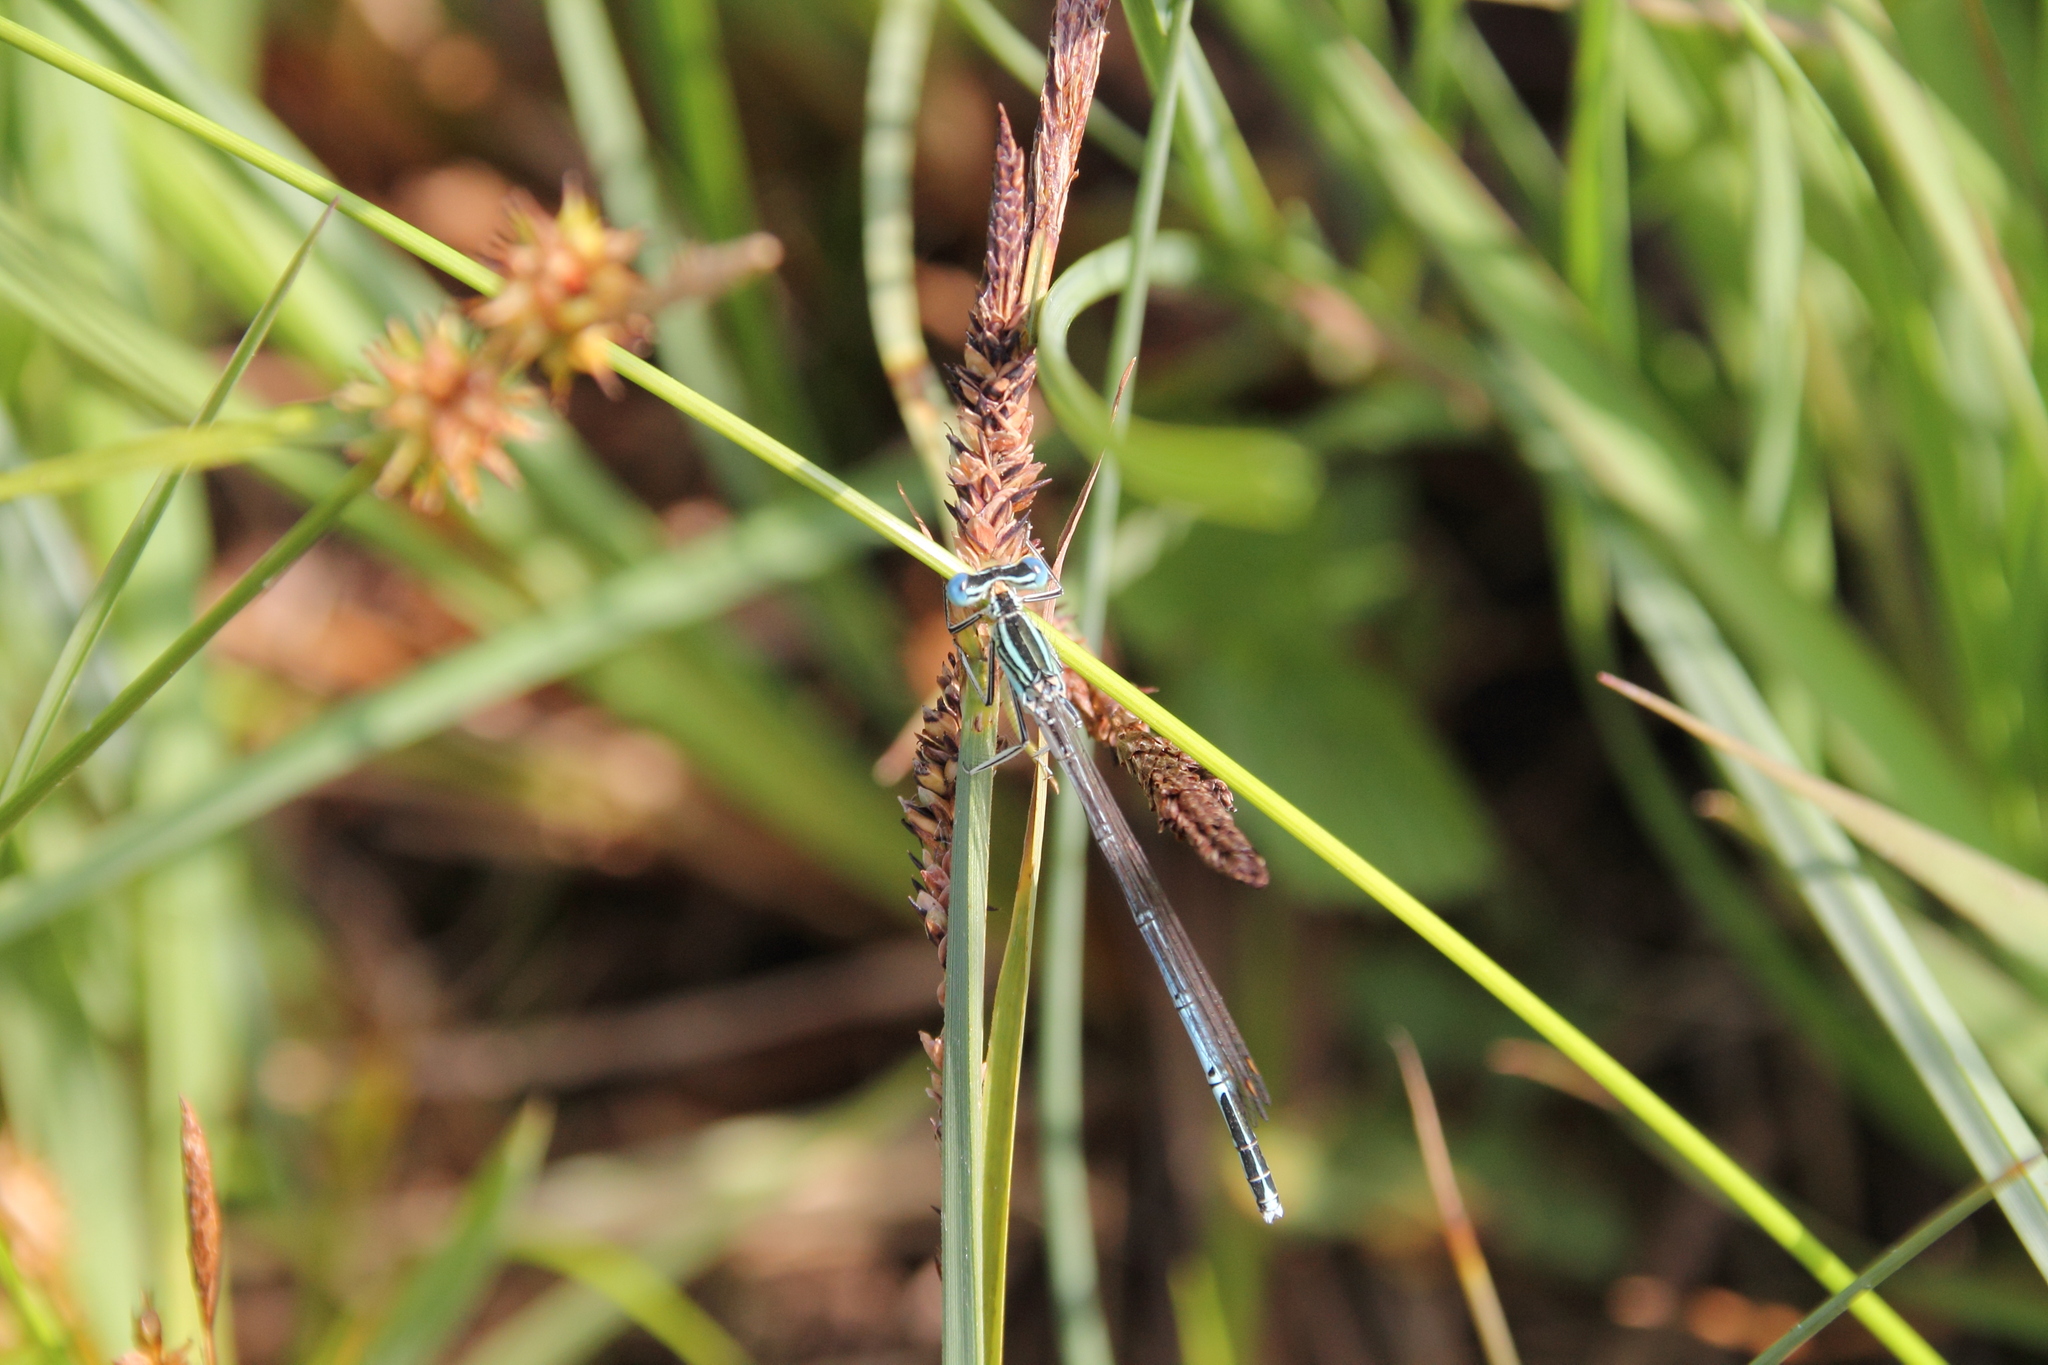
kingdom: Animalia
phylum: Arthropoda
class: Insecta
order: Odonata
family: Platycnemididae
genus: Platycnemis
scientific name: Platycnemis pennipes
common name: White-legged damselfly
